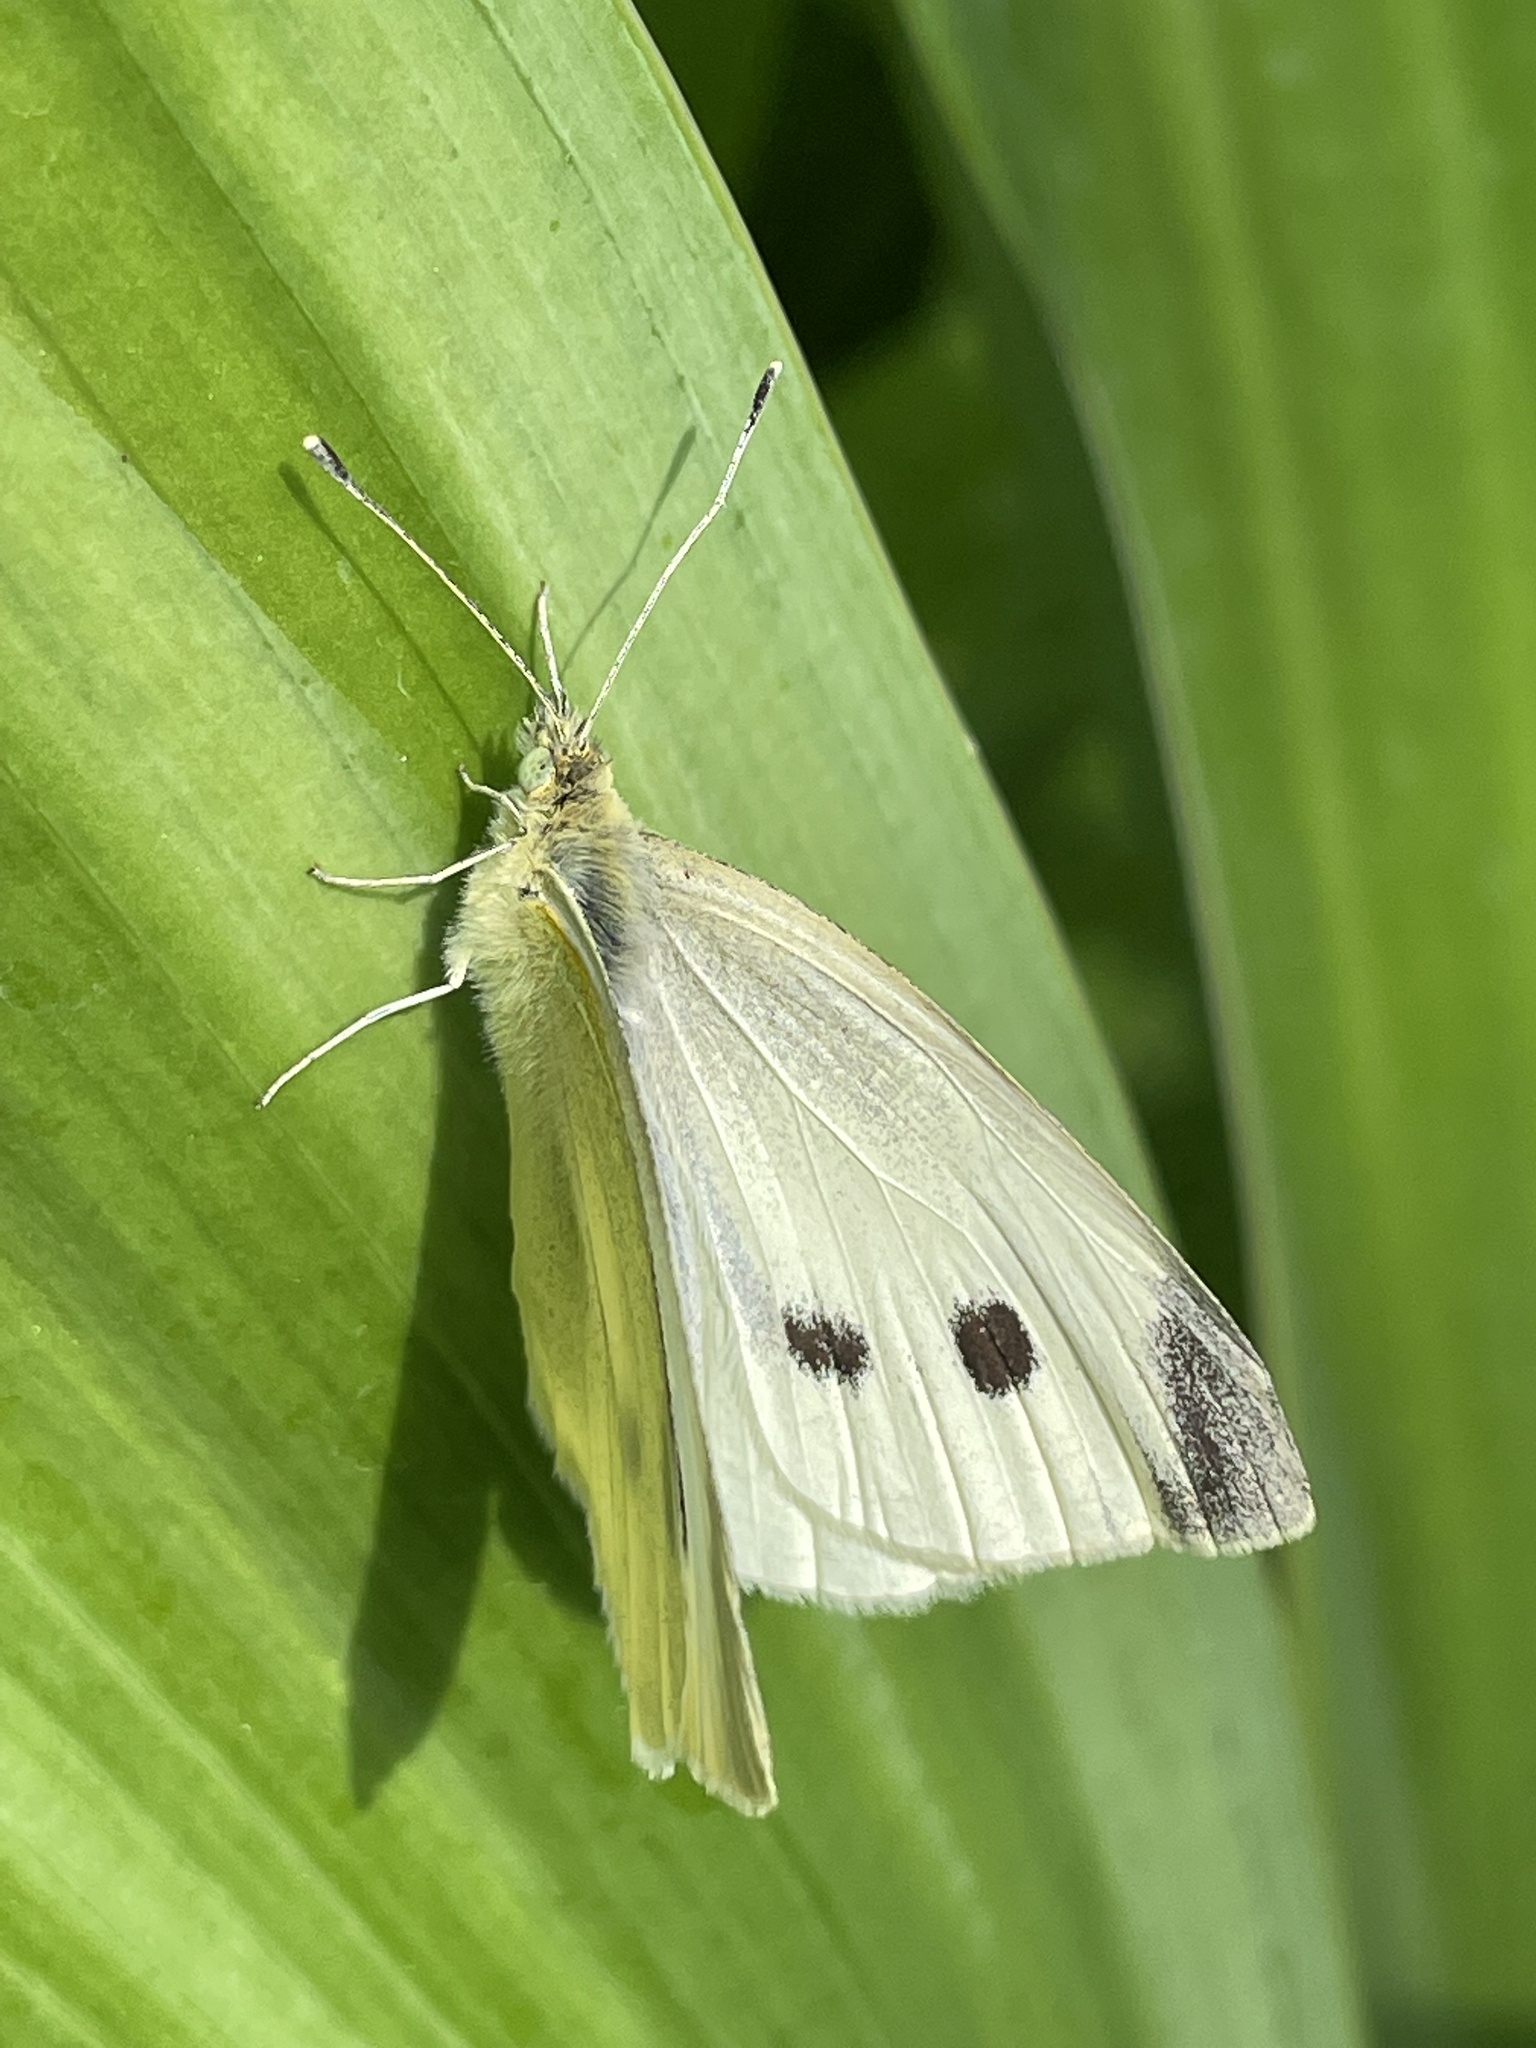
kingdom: Animalia
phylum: Arthropoda
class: Insecta
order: Lepidoptera
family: Pieridae
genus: Pieris
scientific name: Pieris rapae
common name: Small white
